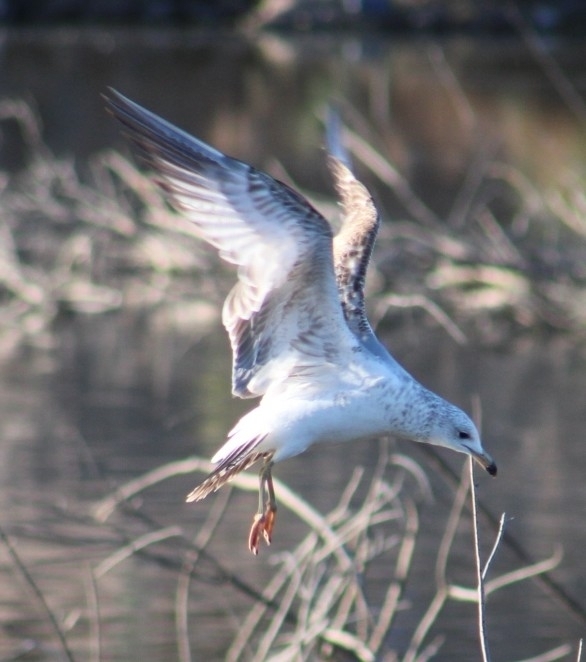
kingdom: Animalia
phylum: Chordata
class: Aves
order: Charadriiformes
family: Laridae
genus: Larus
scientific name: Larus delawarensis
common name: Ring-billed gull
